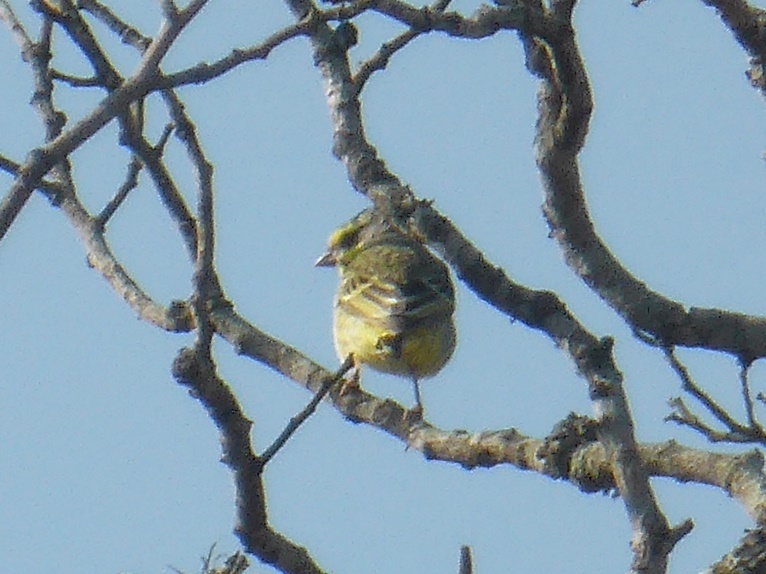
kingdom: Animalia
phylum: Chordata
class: Aves
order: Passeriformes
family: Fringillidae
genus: Crithagra
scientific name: Crithagra mozambica
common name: Yellow-fronted canary
